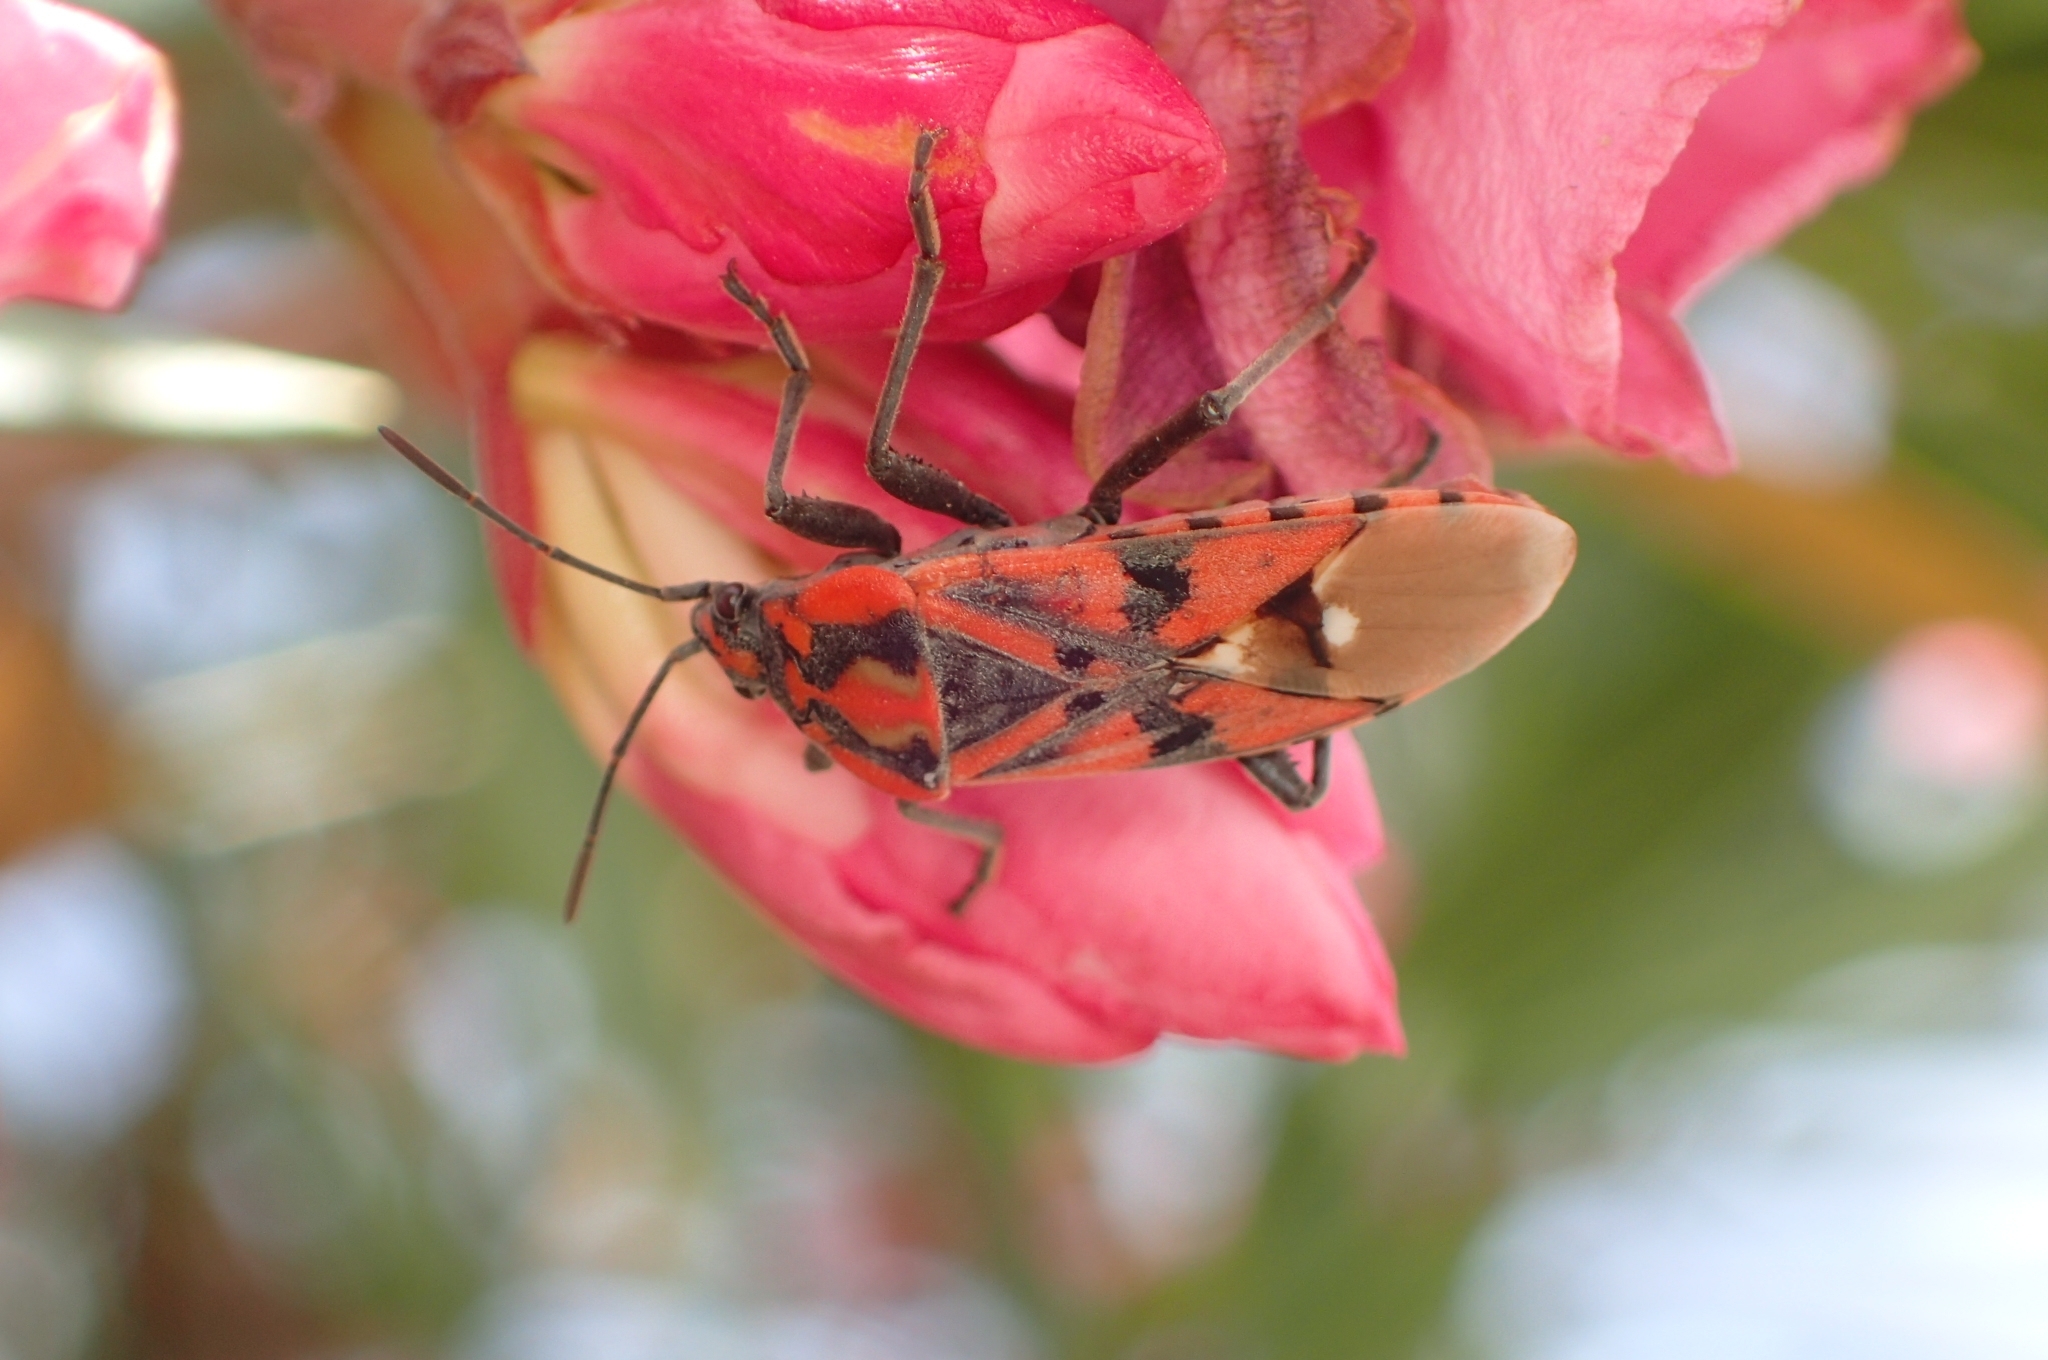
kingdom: Animalia
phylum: Arthropoda
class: Insecta
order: Hemiptera
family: Lygaeidae
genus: Spilostethus
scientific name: Spilostethus pandurus
